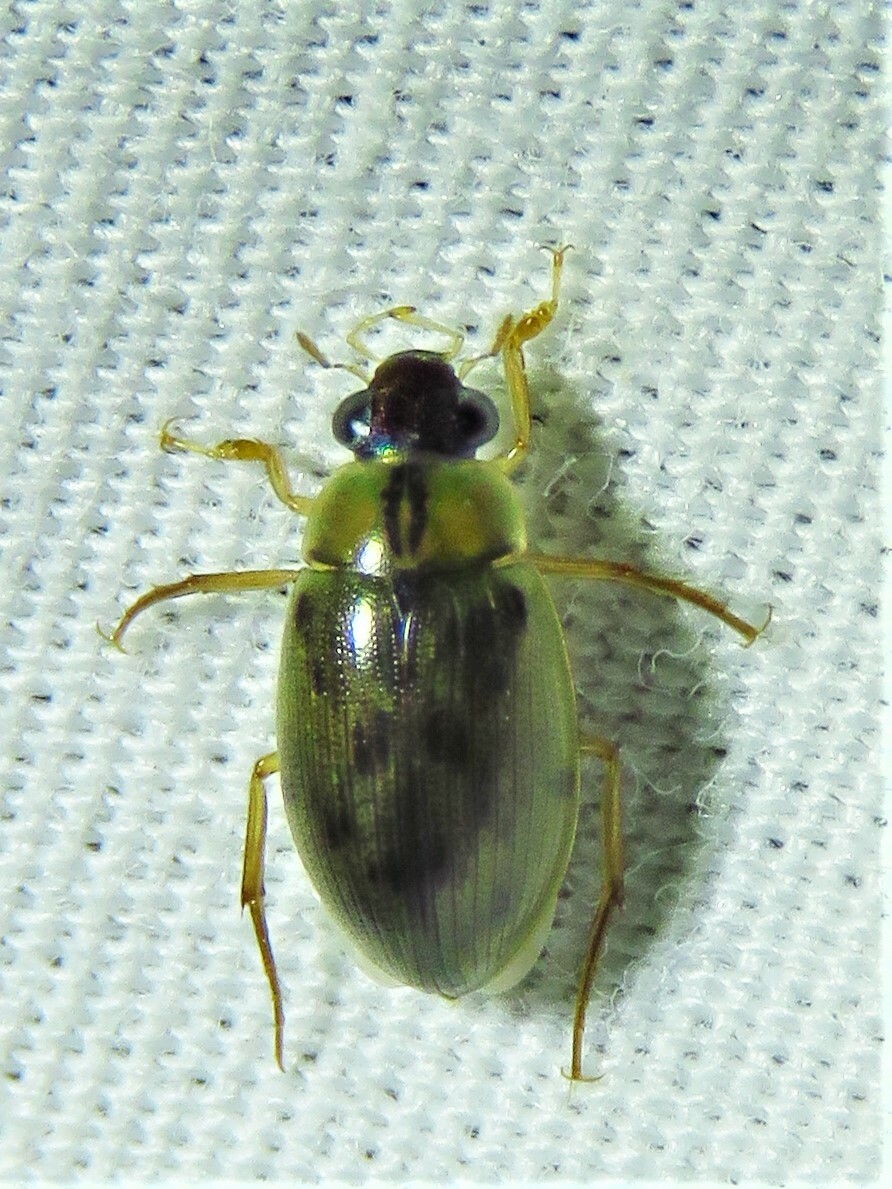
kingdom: Animalia
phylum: Arthropoda
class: Insecta
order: Coleoptera
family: Hydrophilidae
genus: Berosus
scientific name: Berosus
